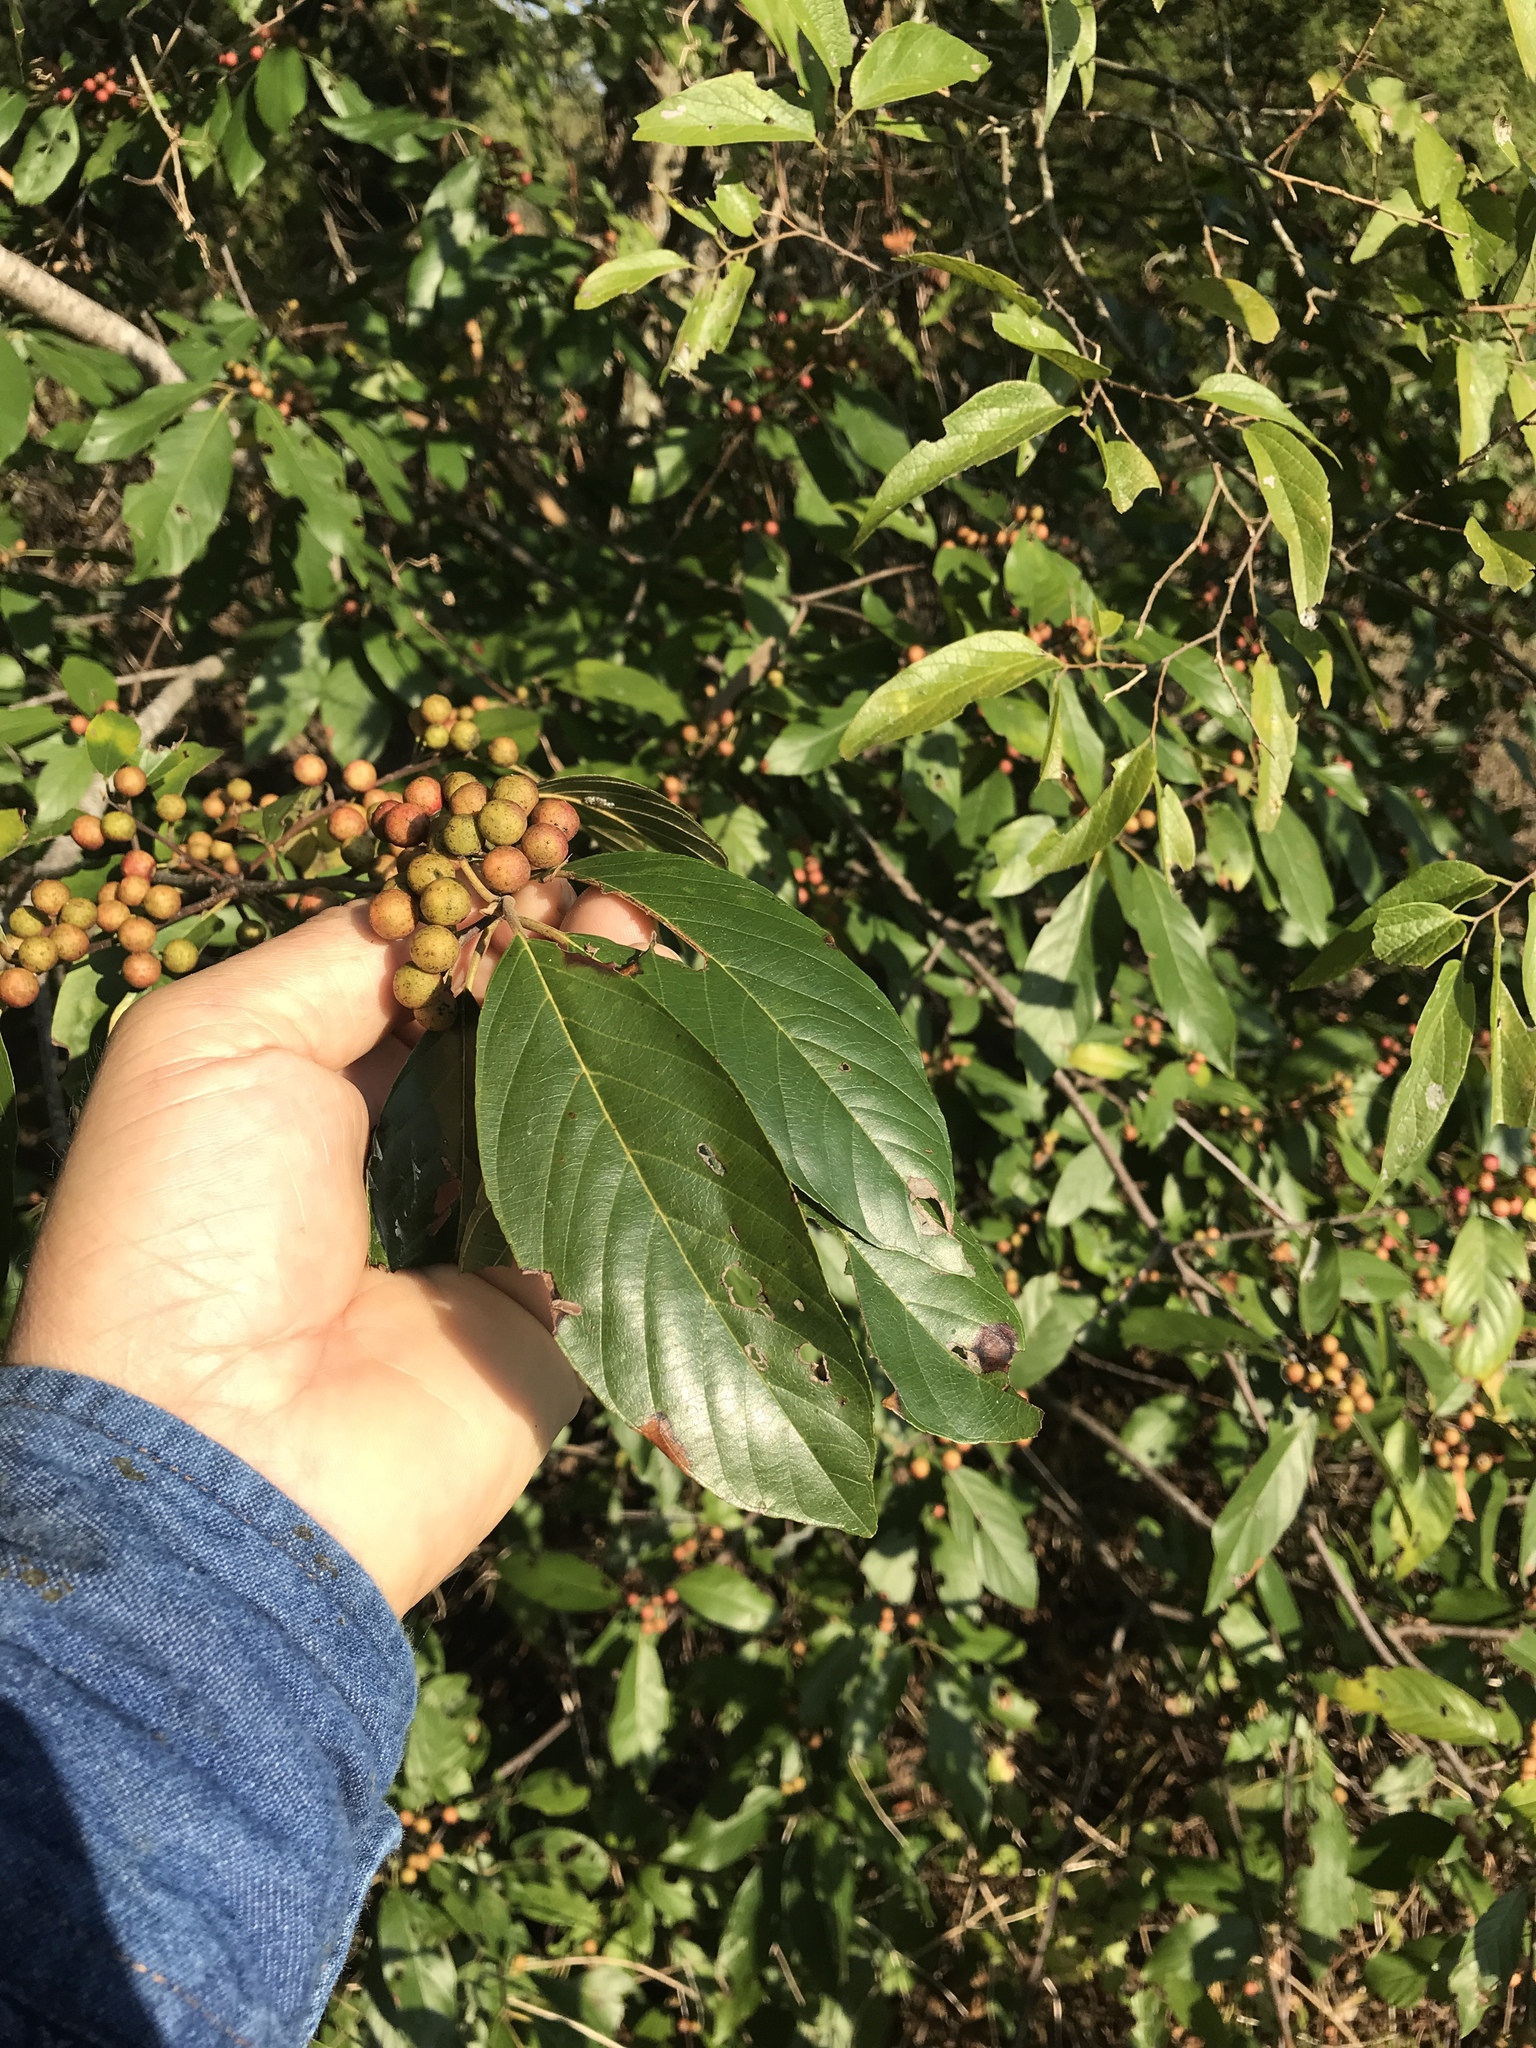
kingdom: Plantae
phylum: Tracheophyta
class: Magnoliopsida
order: Rosales
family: Rhamnaceae
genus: Frangula
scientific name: Frangula caroliniana
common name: Carolina buckthorn
